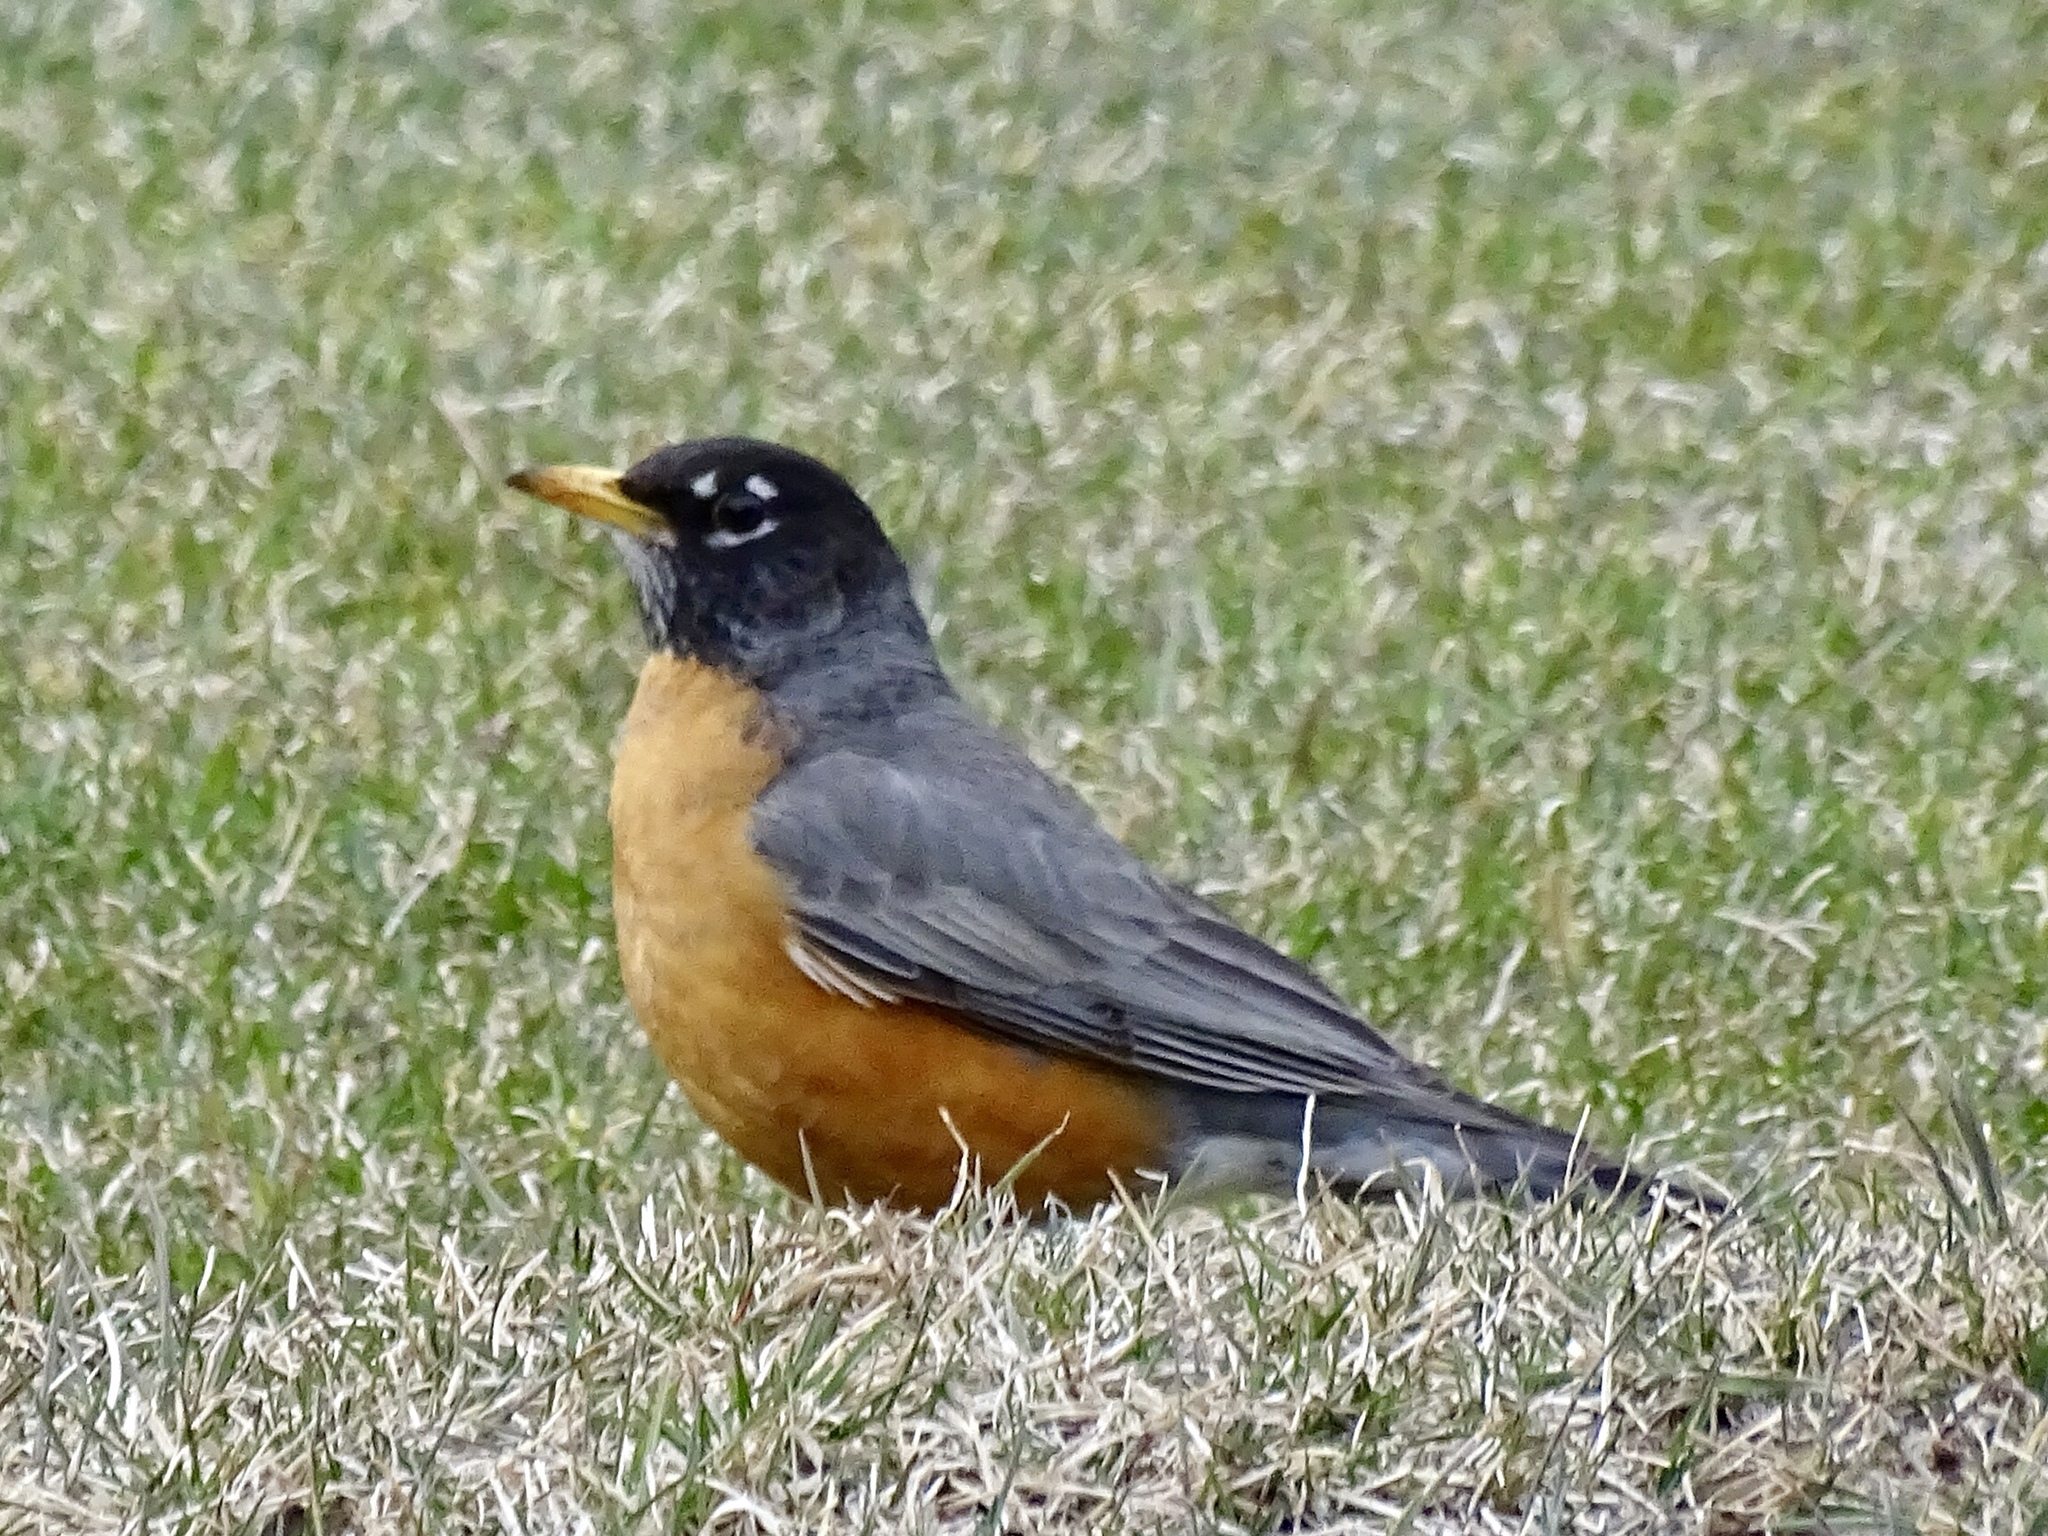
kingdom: Animalia
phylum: Chordata
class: Aves
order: Passeriformes
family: Turdidae
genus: Turdus
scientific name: Turdus migratorius
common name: American robin
